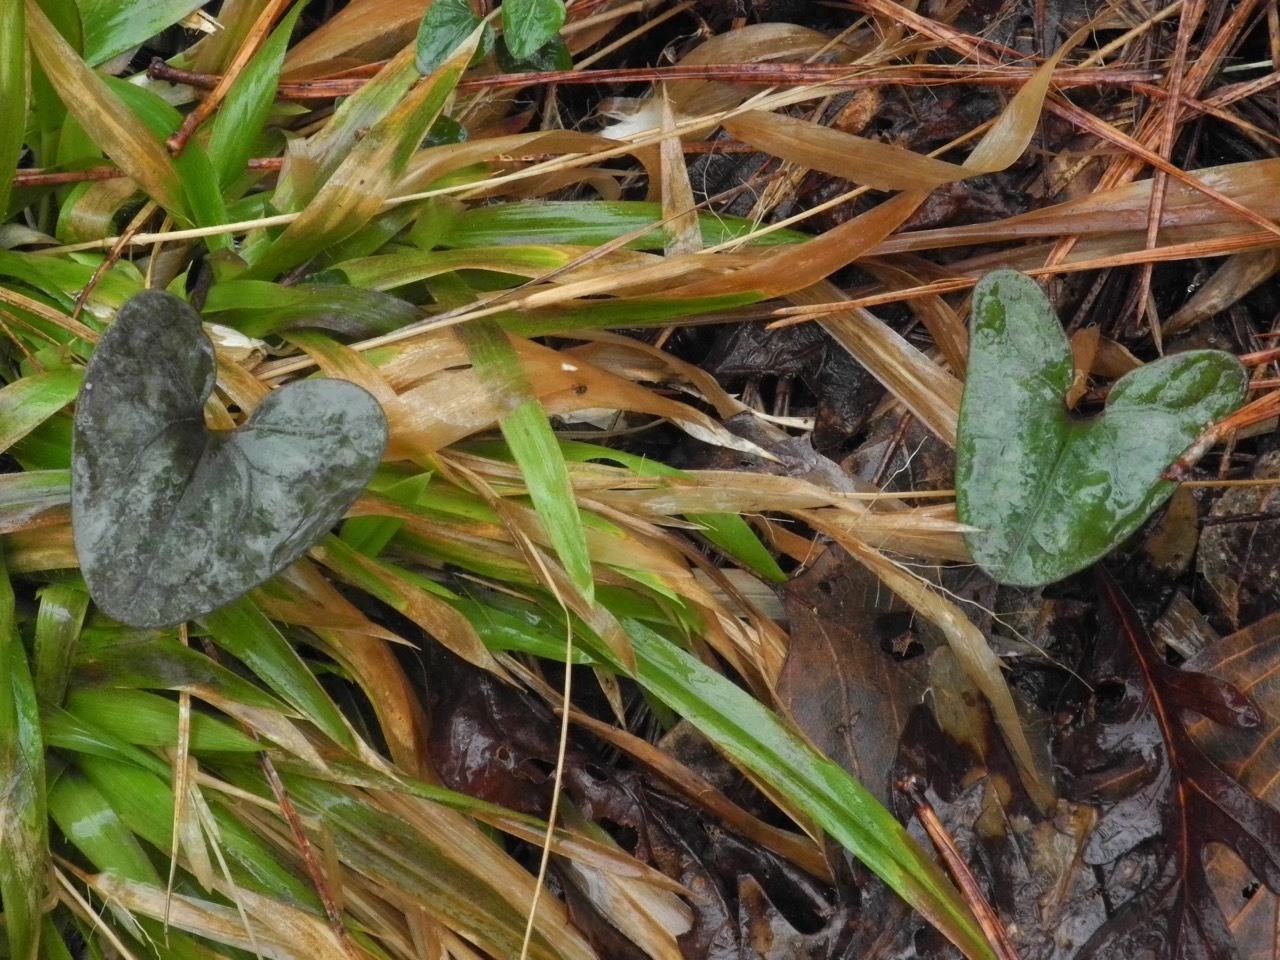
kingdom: Plantae
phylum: Tracheophyta
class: Liliopsida
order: Poales
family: Poaceae
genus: Dichanthelium
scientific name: Dichanthelium laxiflorum
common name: Soft-tuft panic grass
